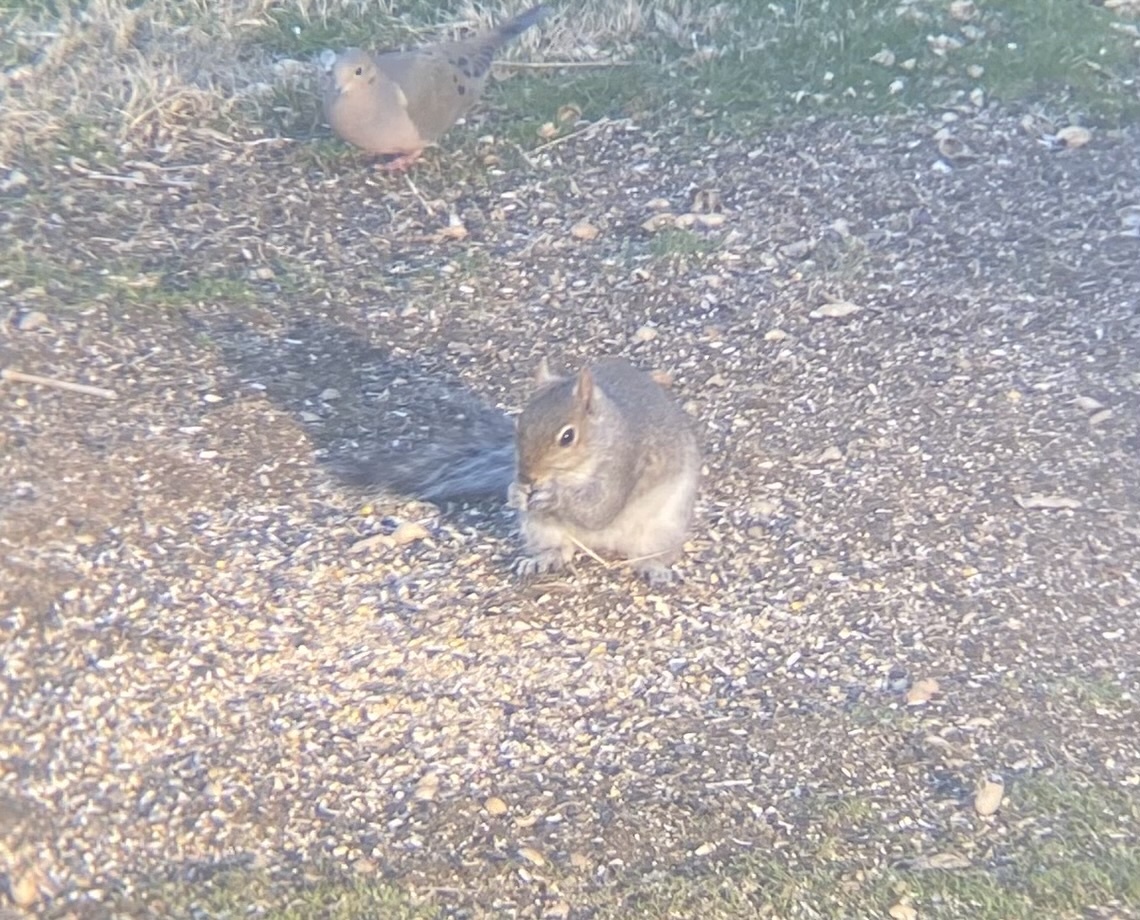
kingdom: Animalia
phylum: Chordata
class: Mammalia
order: Rodentia
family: Sciuridae
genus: Sciurus
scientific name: Sciurus carolinensis
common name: Eastern gray squirrel
